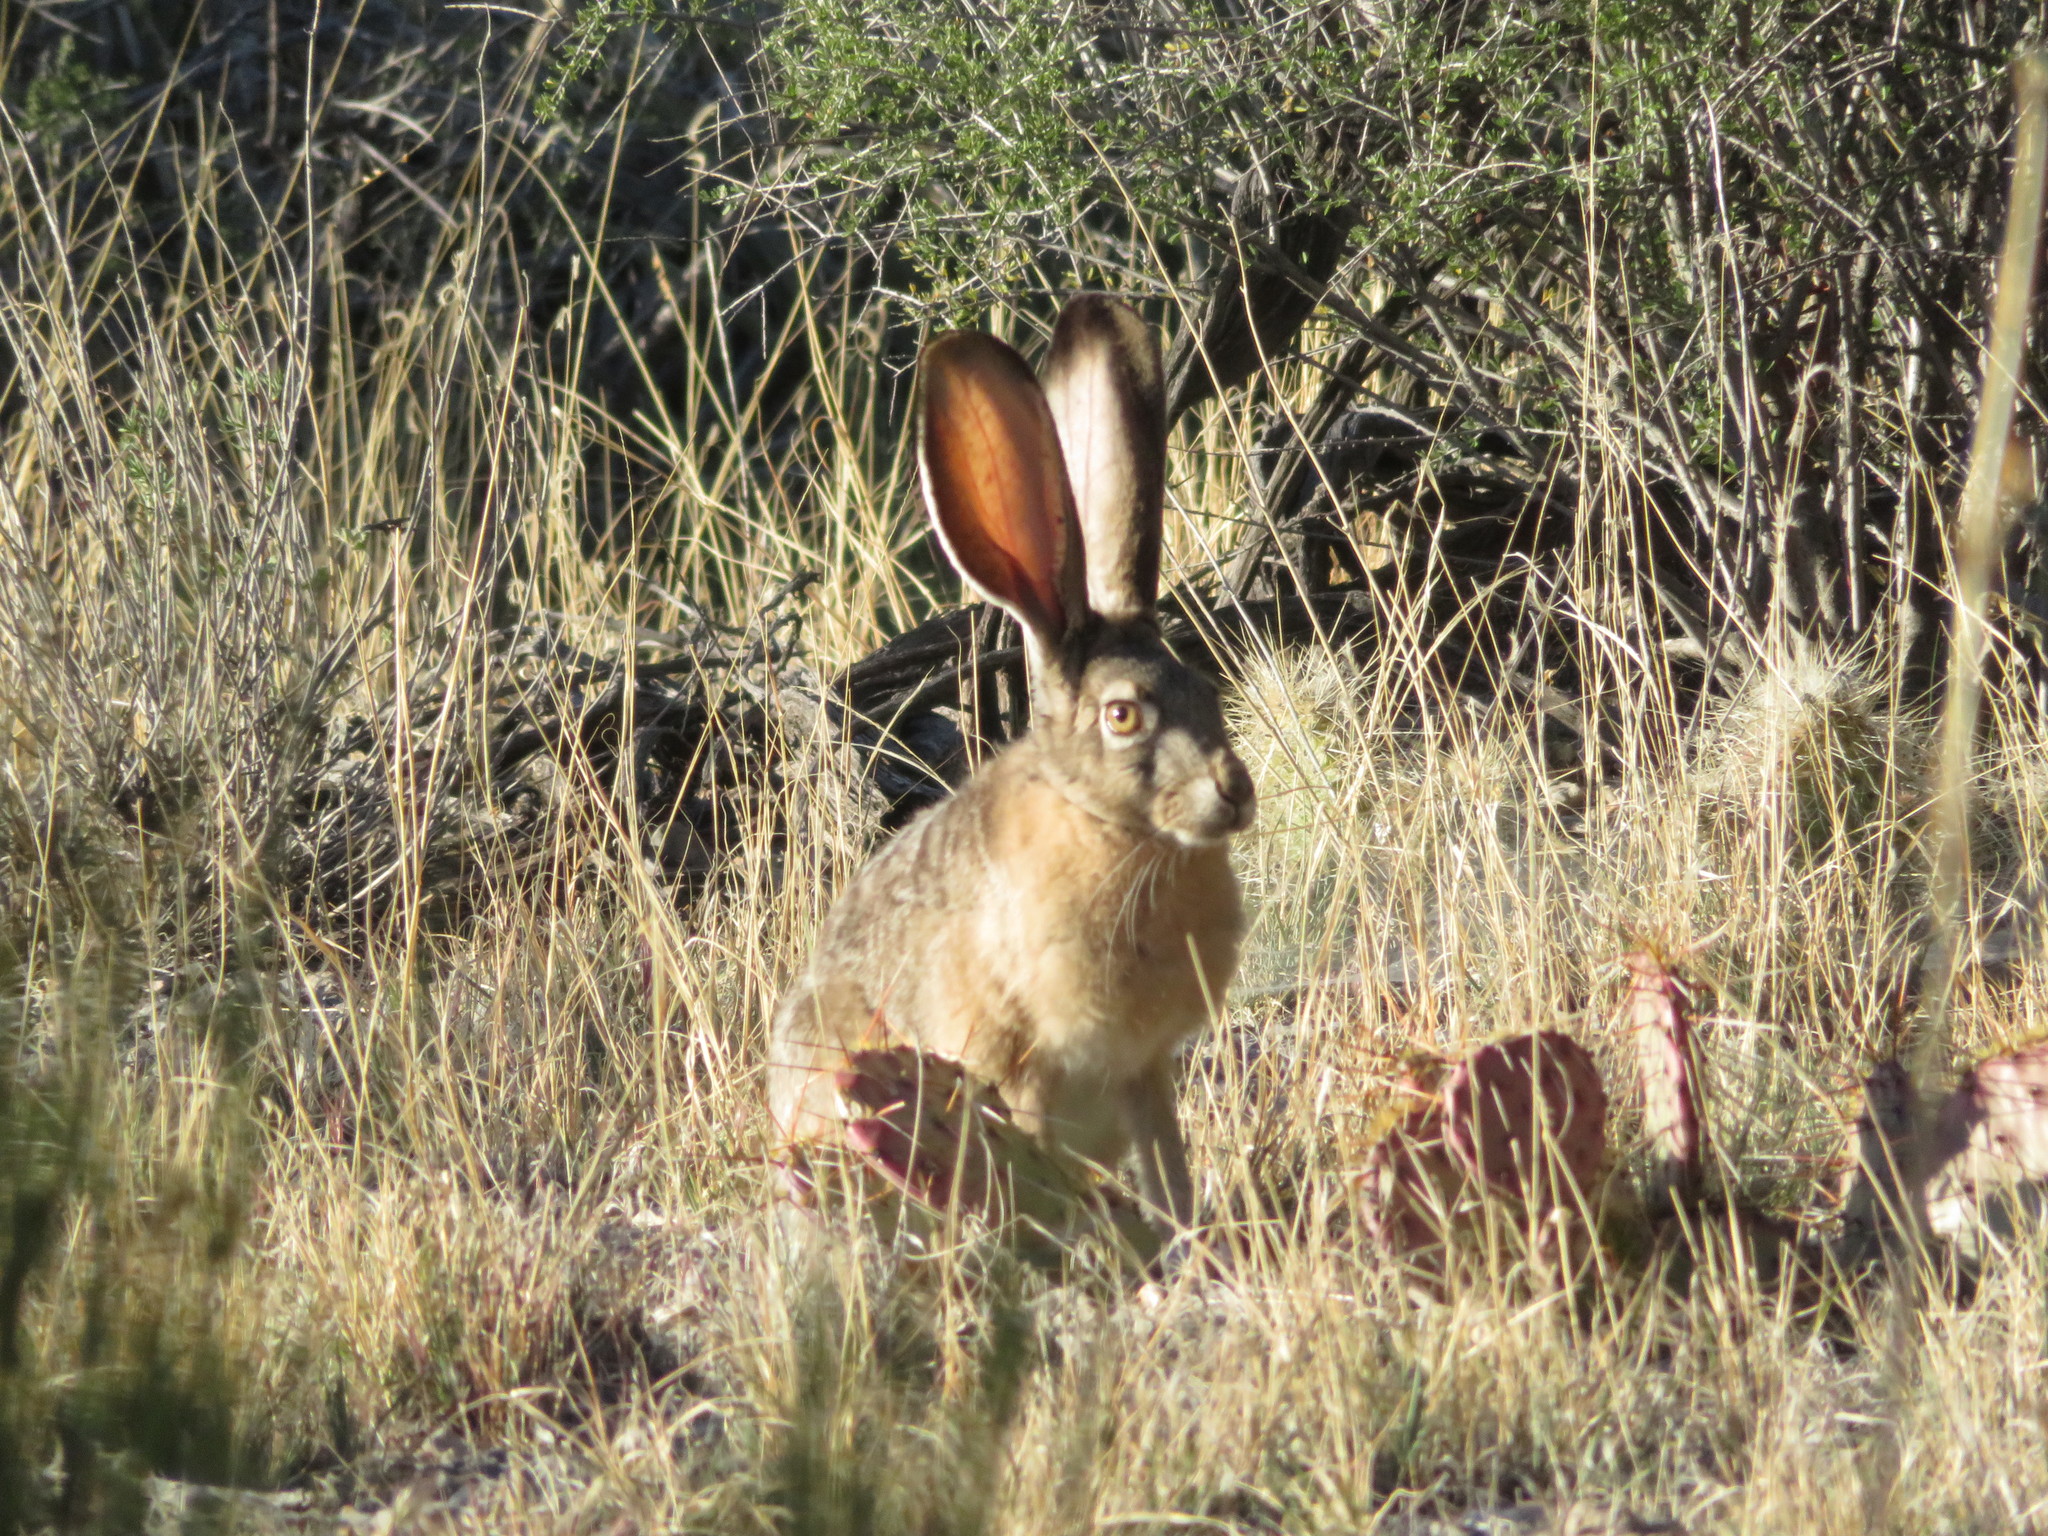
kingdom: Animalia
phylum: Chordata
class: Mammalia
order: Lagomorpha
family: Leporidae
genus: Lepus
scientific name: Lepus californicus
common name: Black-tailed jackrabbit
